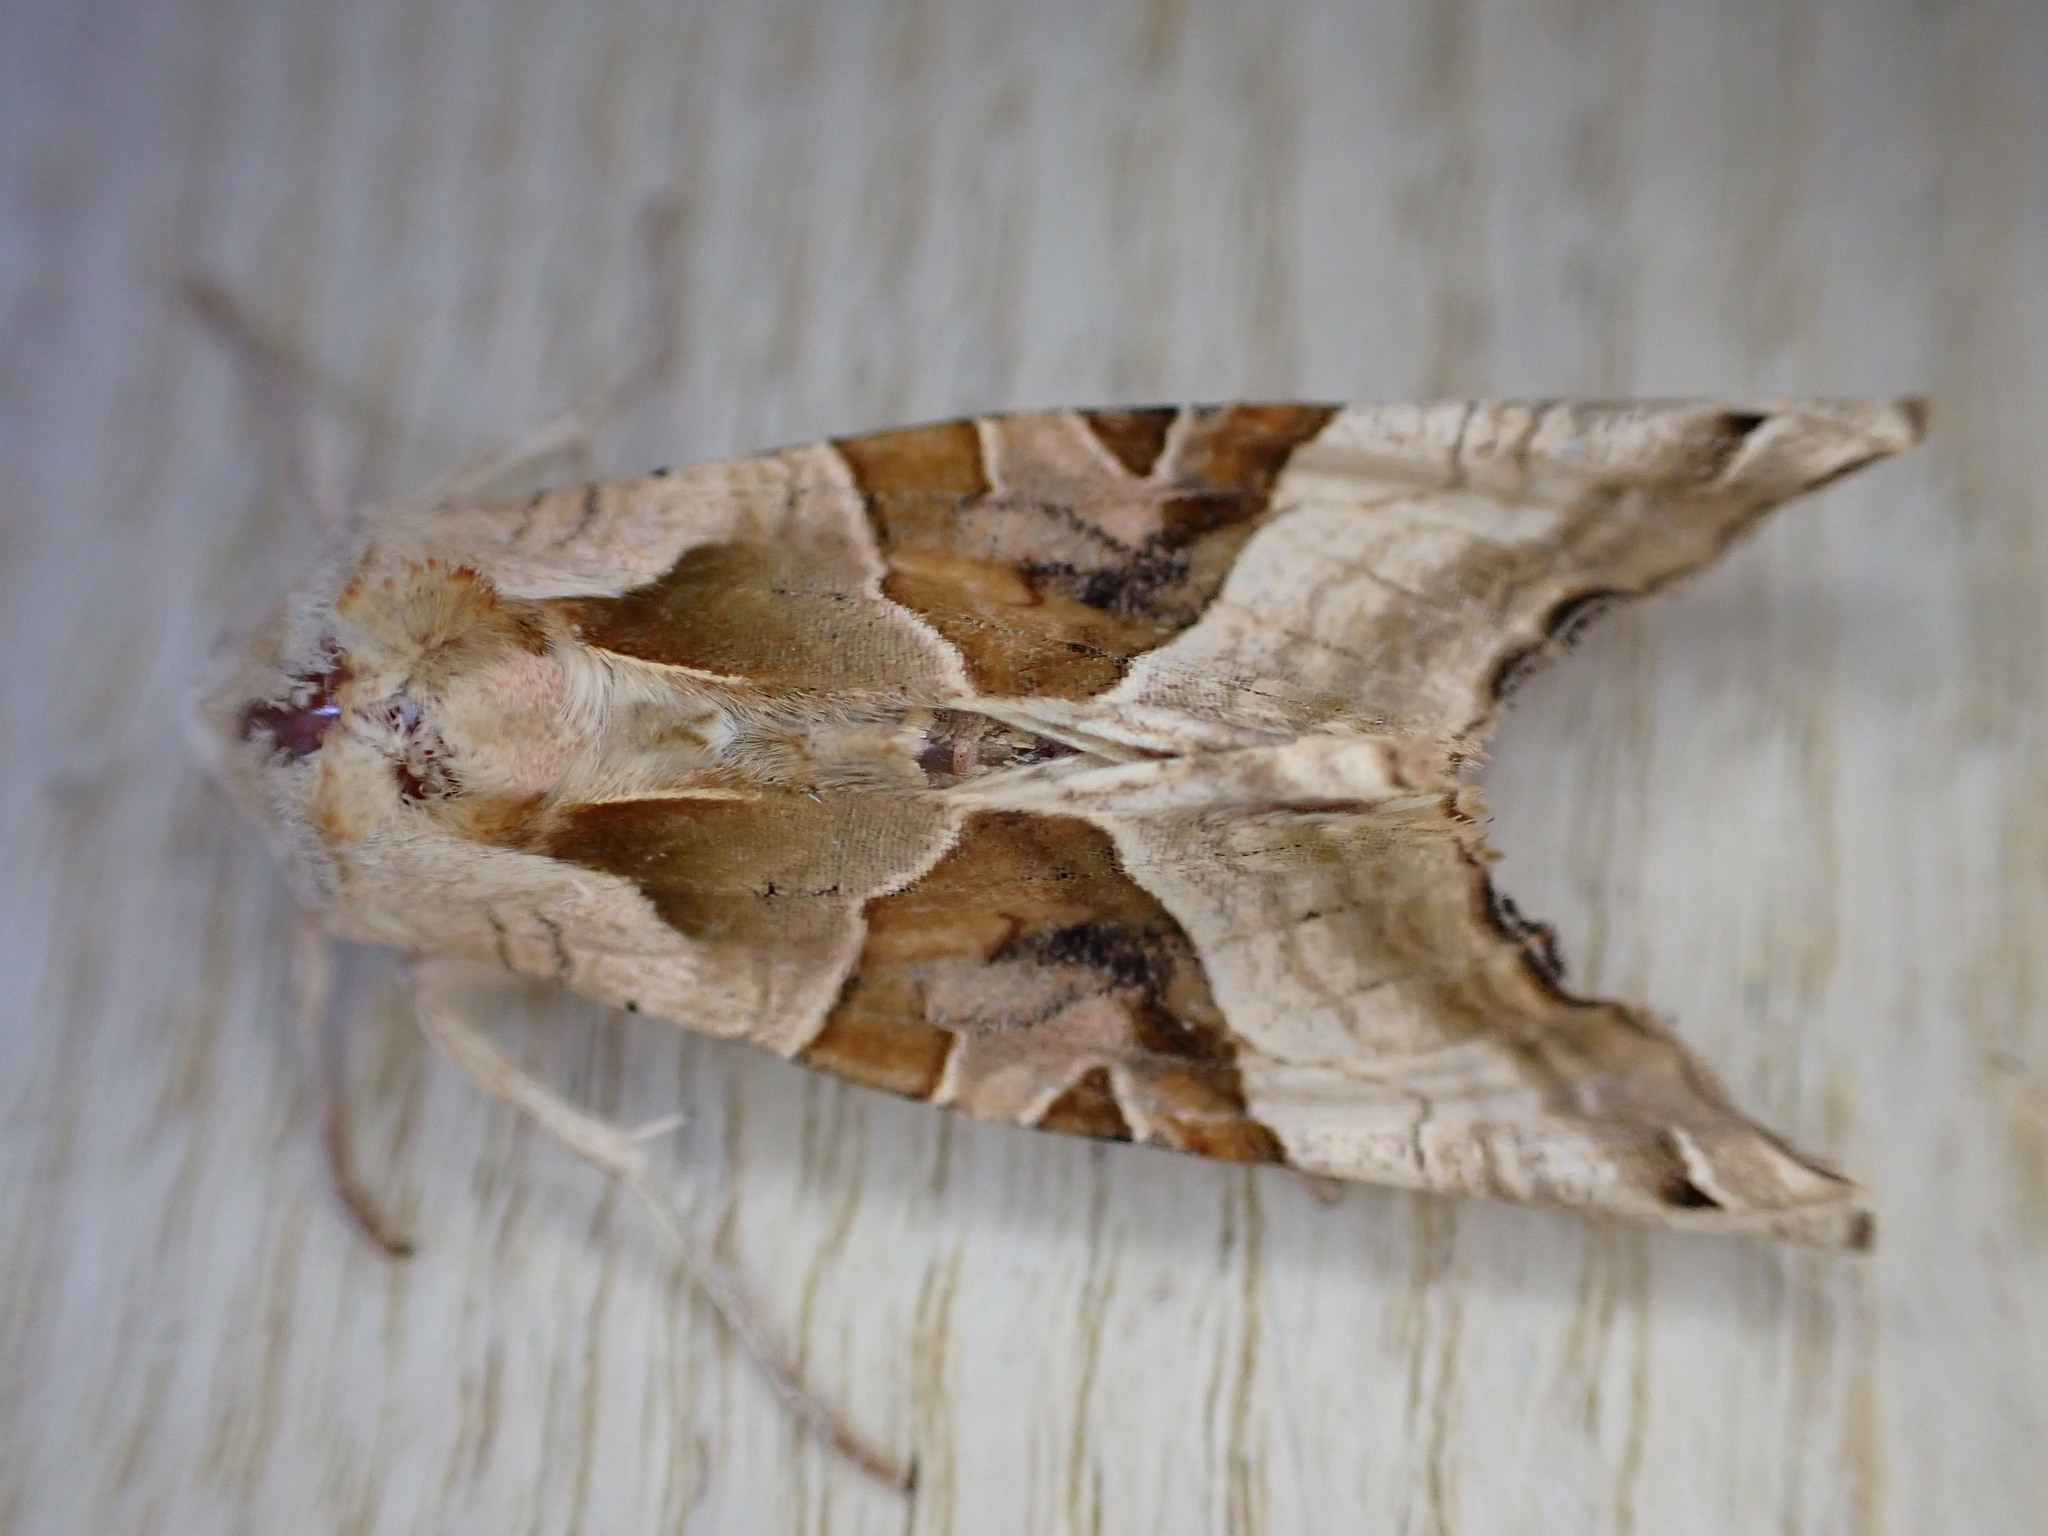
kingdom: Animalia
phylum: Arthropoda
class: Insecta
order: Lepidoptera
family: Noctuidae
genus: Phlogophora
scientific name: Phlogophora meticulosa
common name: Angle shades
